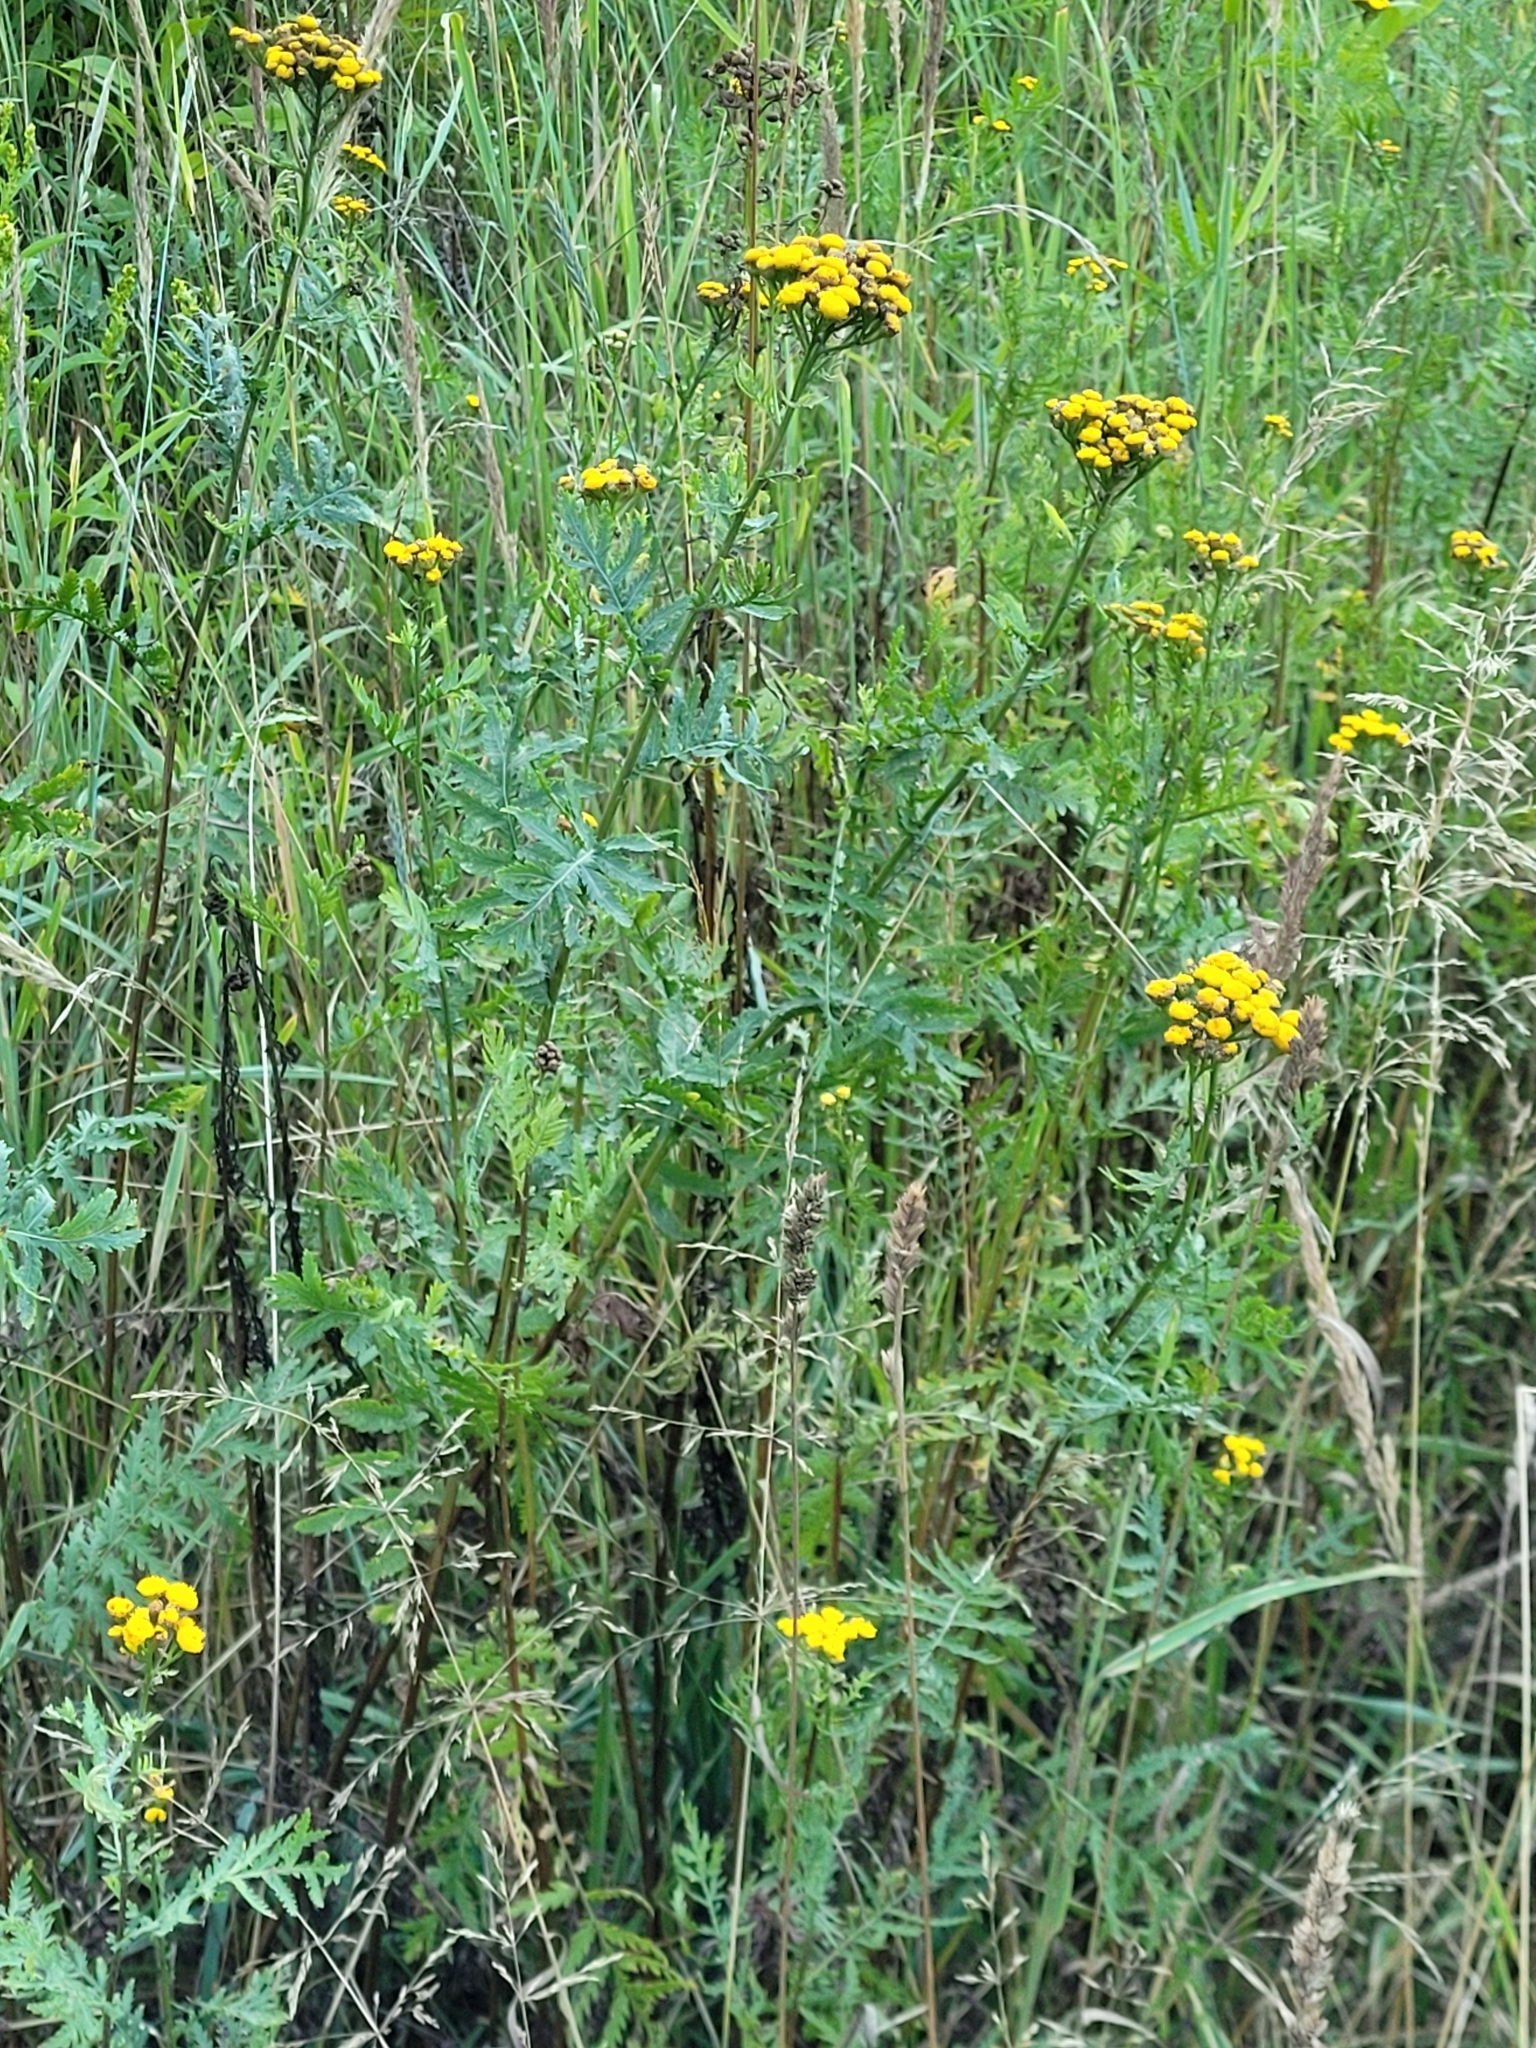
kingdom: Plantae
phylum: Tracheophyta
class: Magnoliopsida
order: Asterales
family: Asteraceae
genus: Tanacetum
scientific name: Tanacetum vulgare
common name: Common tansy
